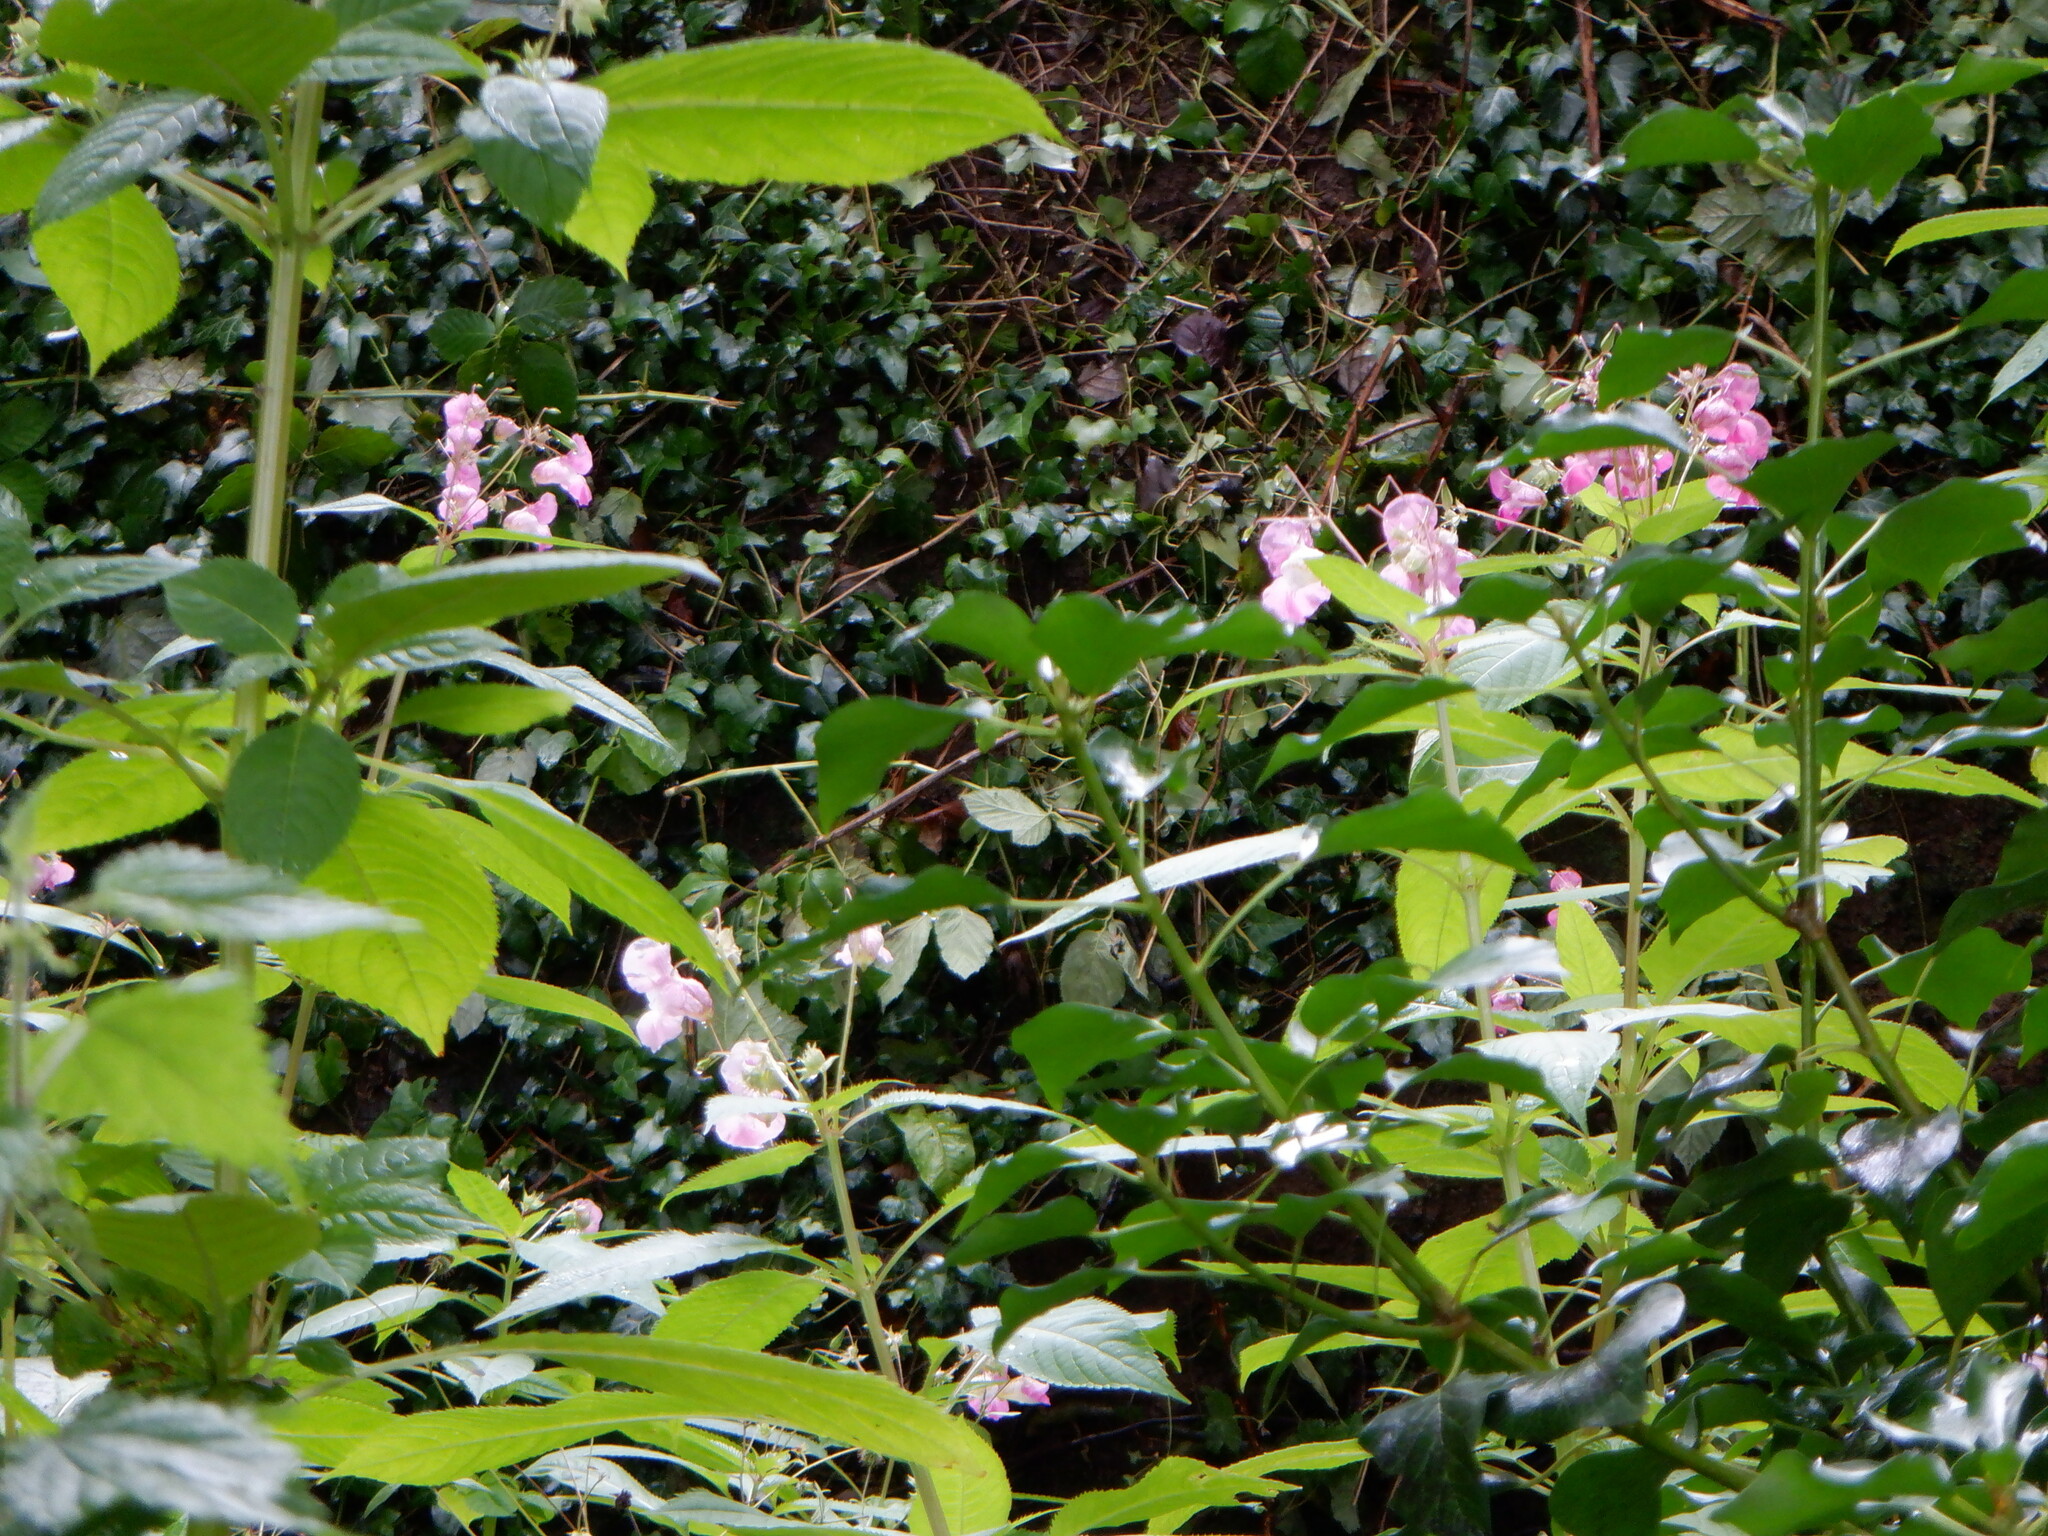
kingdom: Plantae
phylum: Tracheophyta
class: Magnoliopsida
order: Ericales
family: Balsaminaceae
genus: Impatiens
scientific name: Impatiens glandulifera
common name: Himalayan balsam
